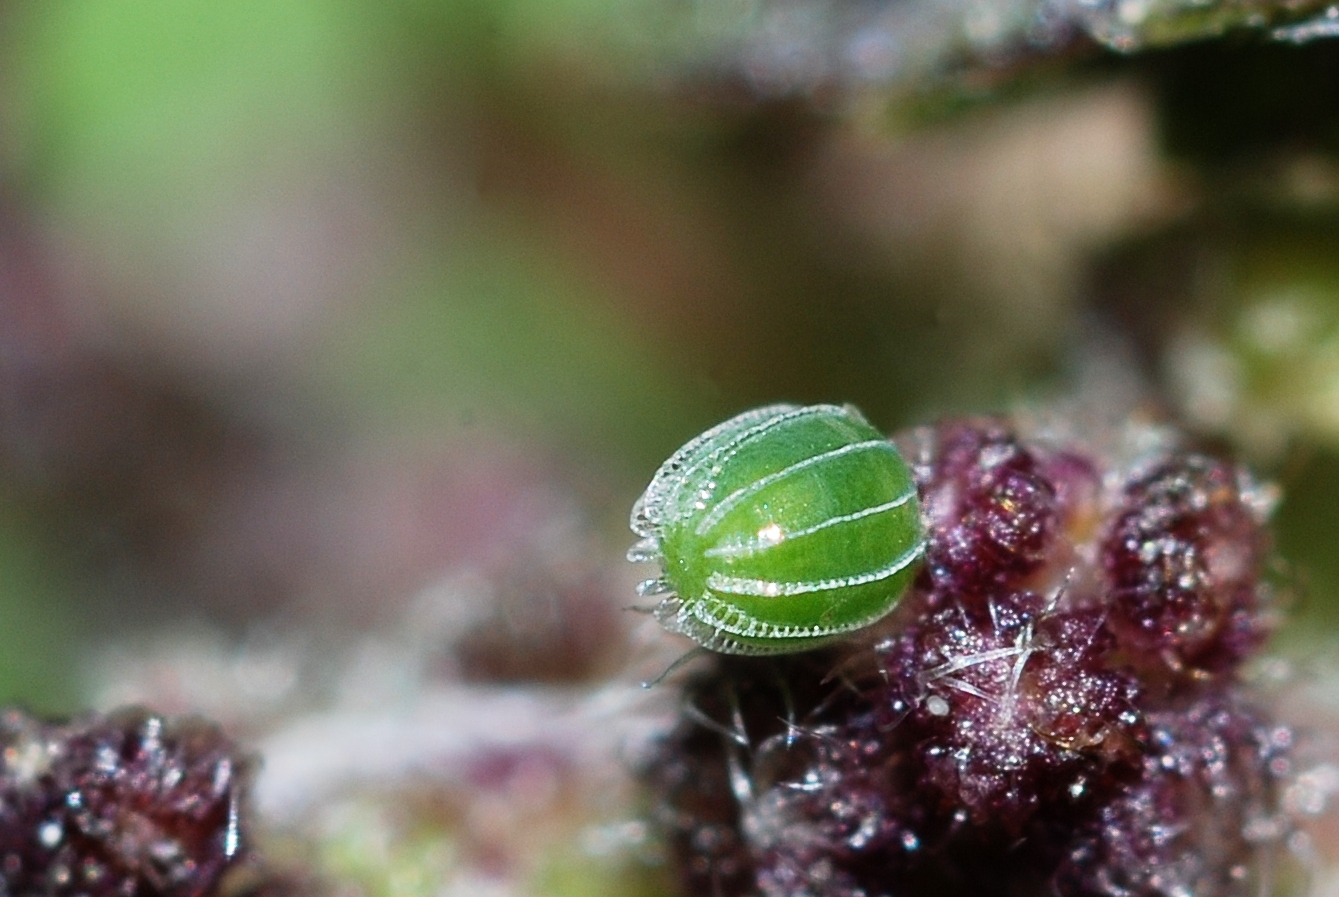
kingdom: Animalia
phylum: Arthropoda
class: Insecta
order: Lepidoptera
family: Nymphalidae
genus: Vanessa
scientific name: Vanessa atalanta
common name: Red admiral
